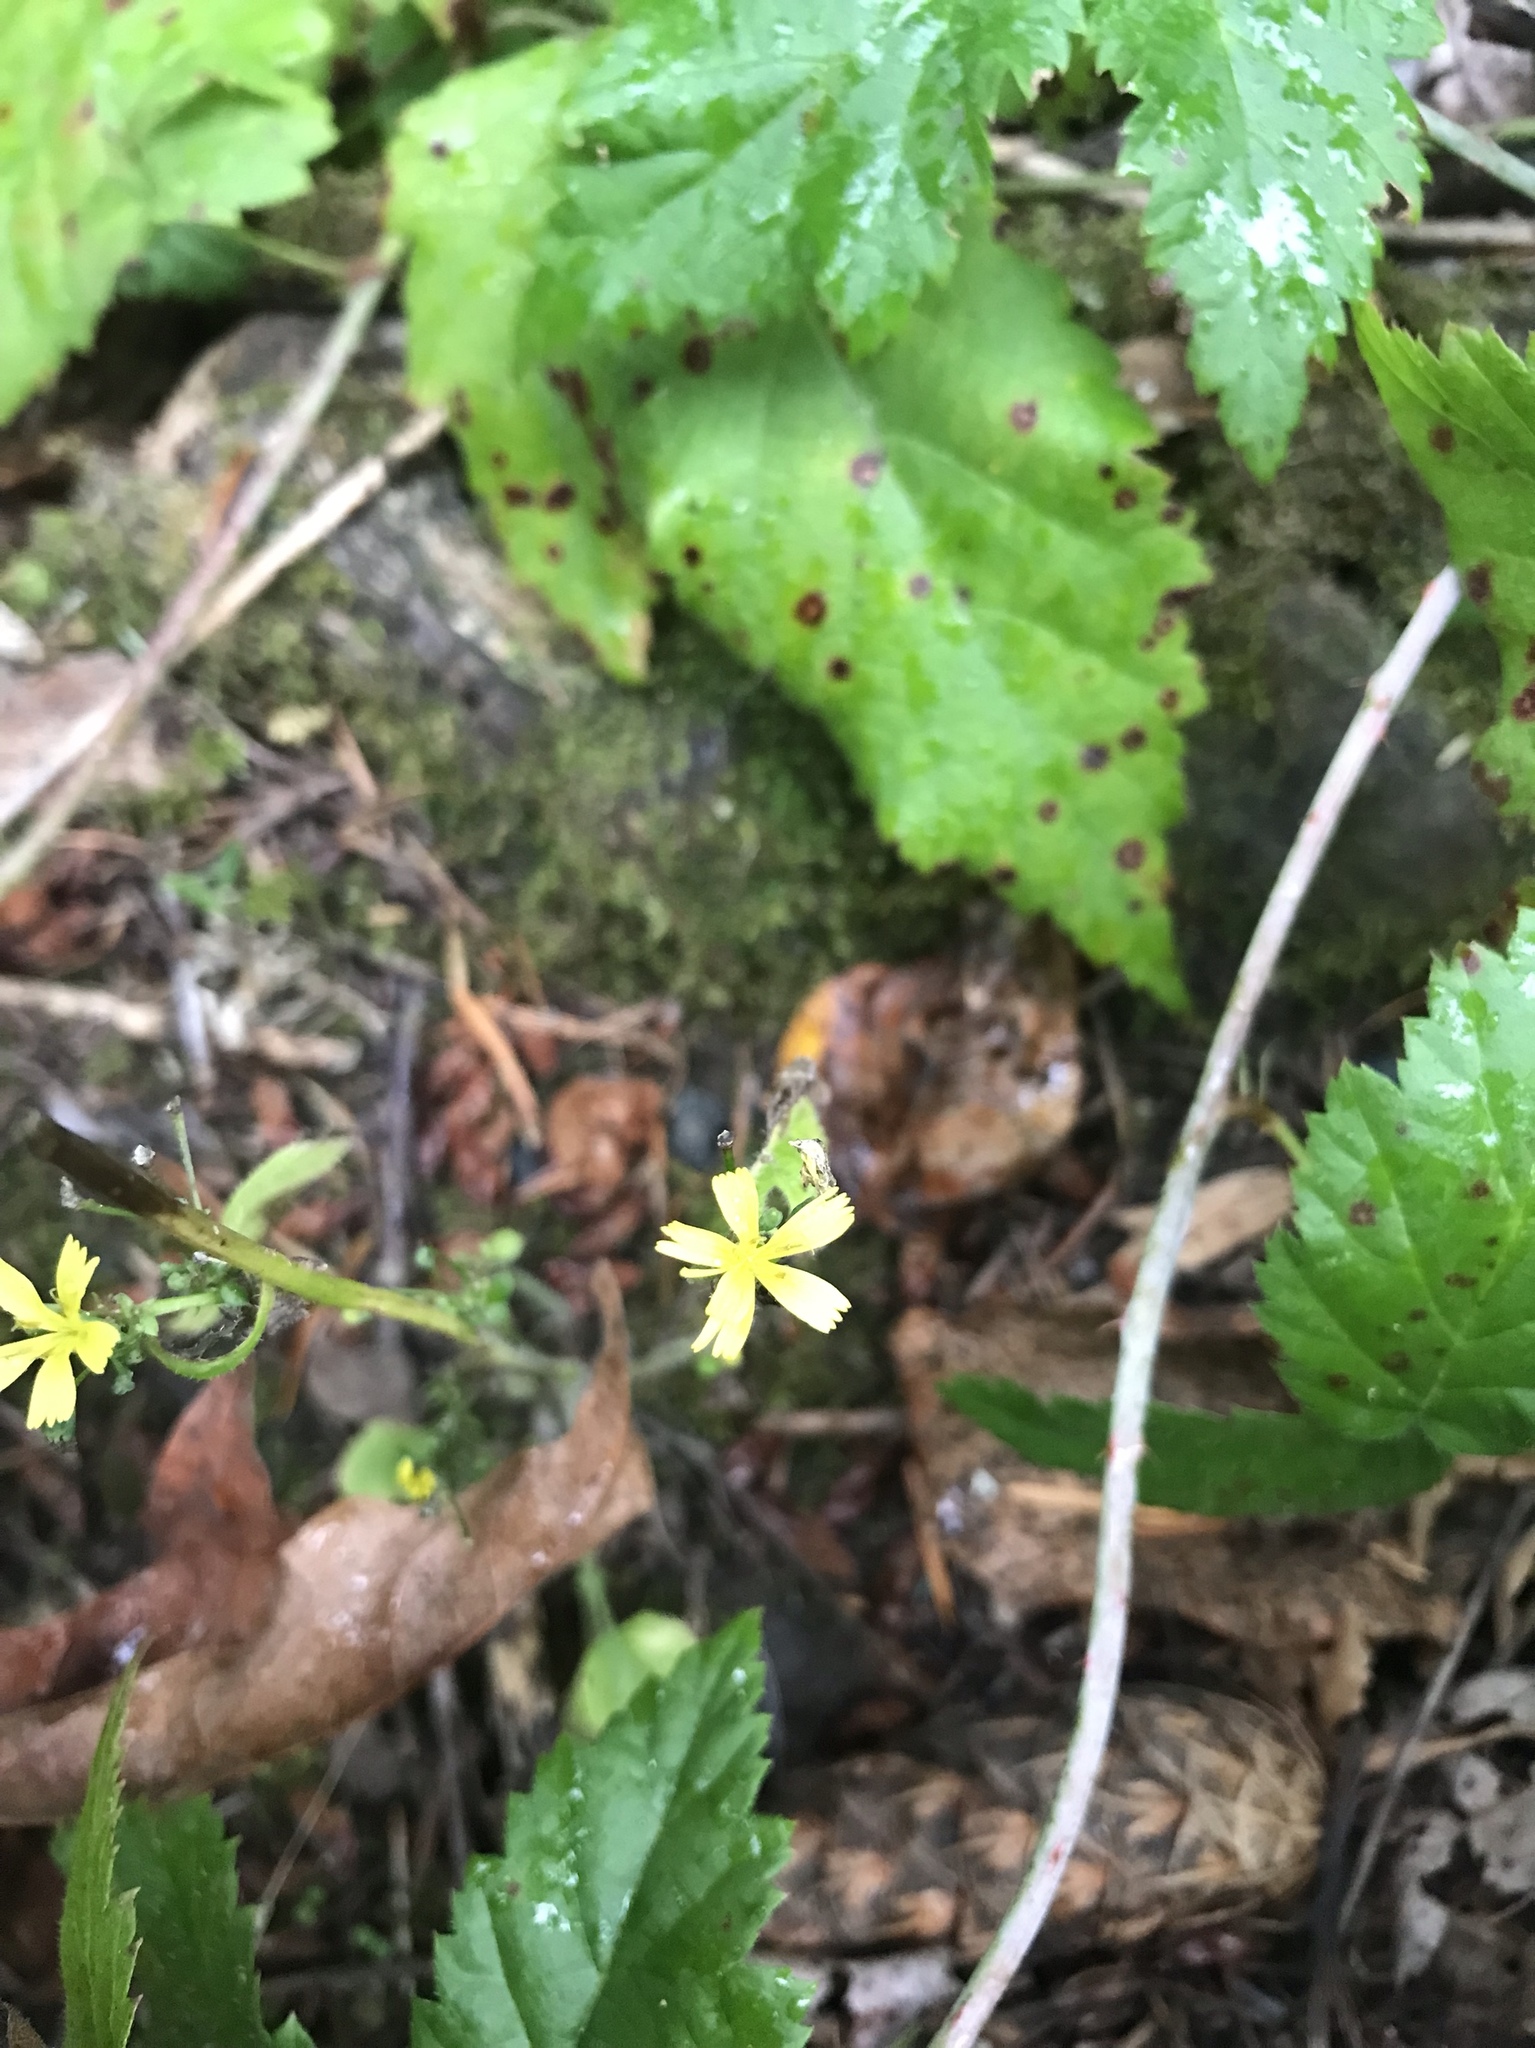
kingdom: Plantae
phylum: Tracheophyta
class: Magnoliopsida
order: Asterales
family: Asteraceae
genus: Lapsana
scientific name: Lapsana communis
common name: Nipplewort
